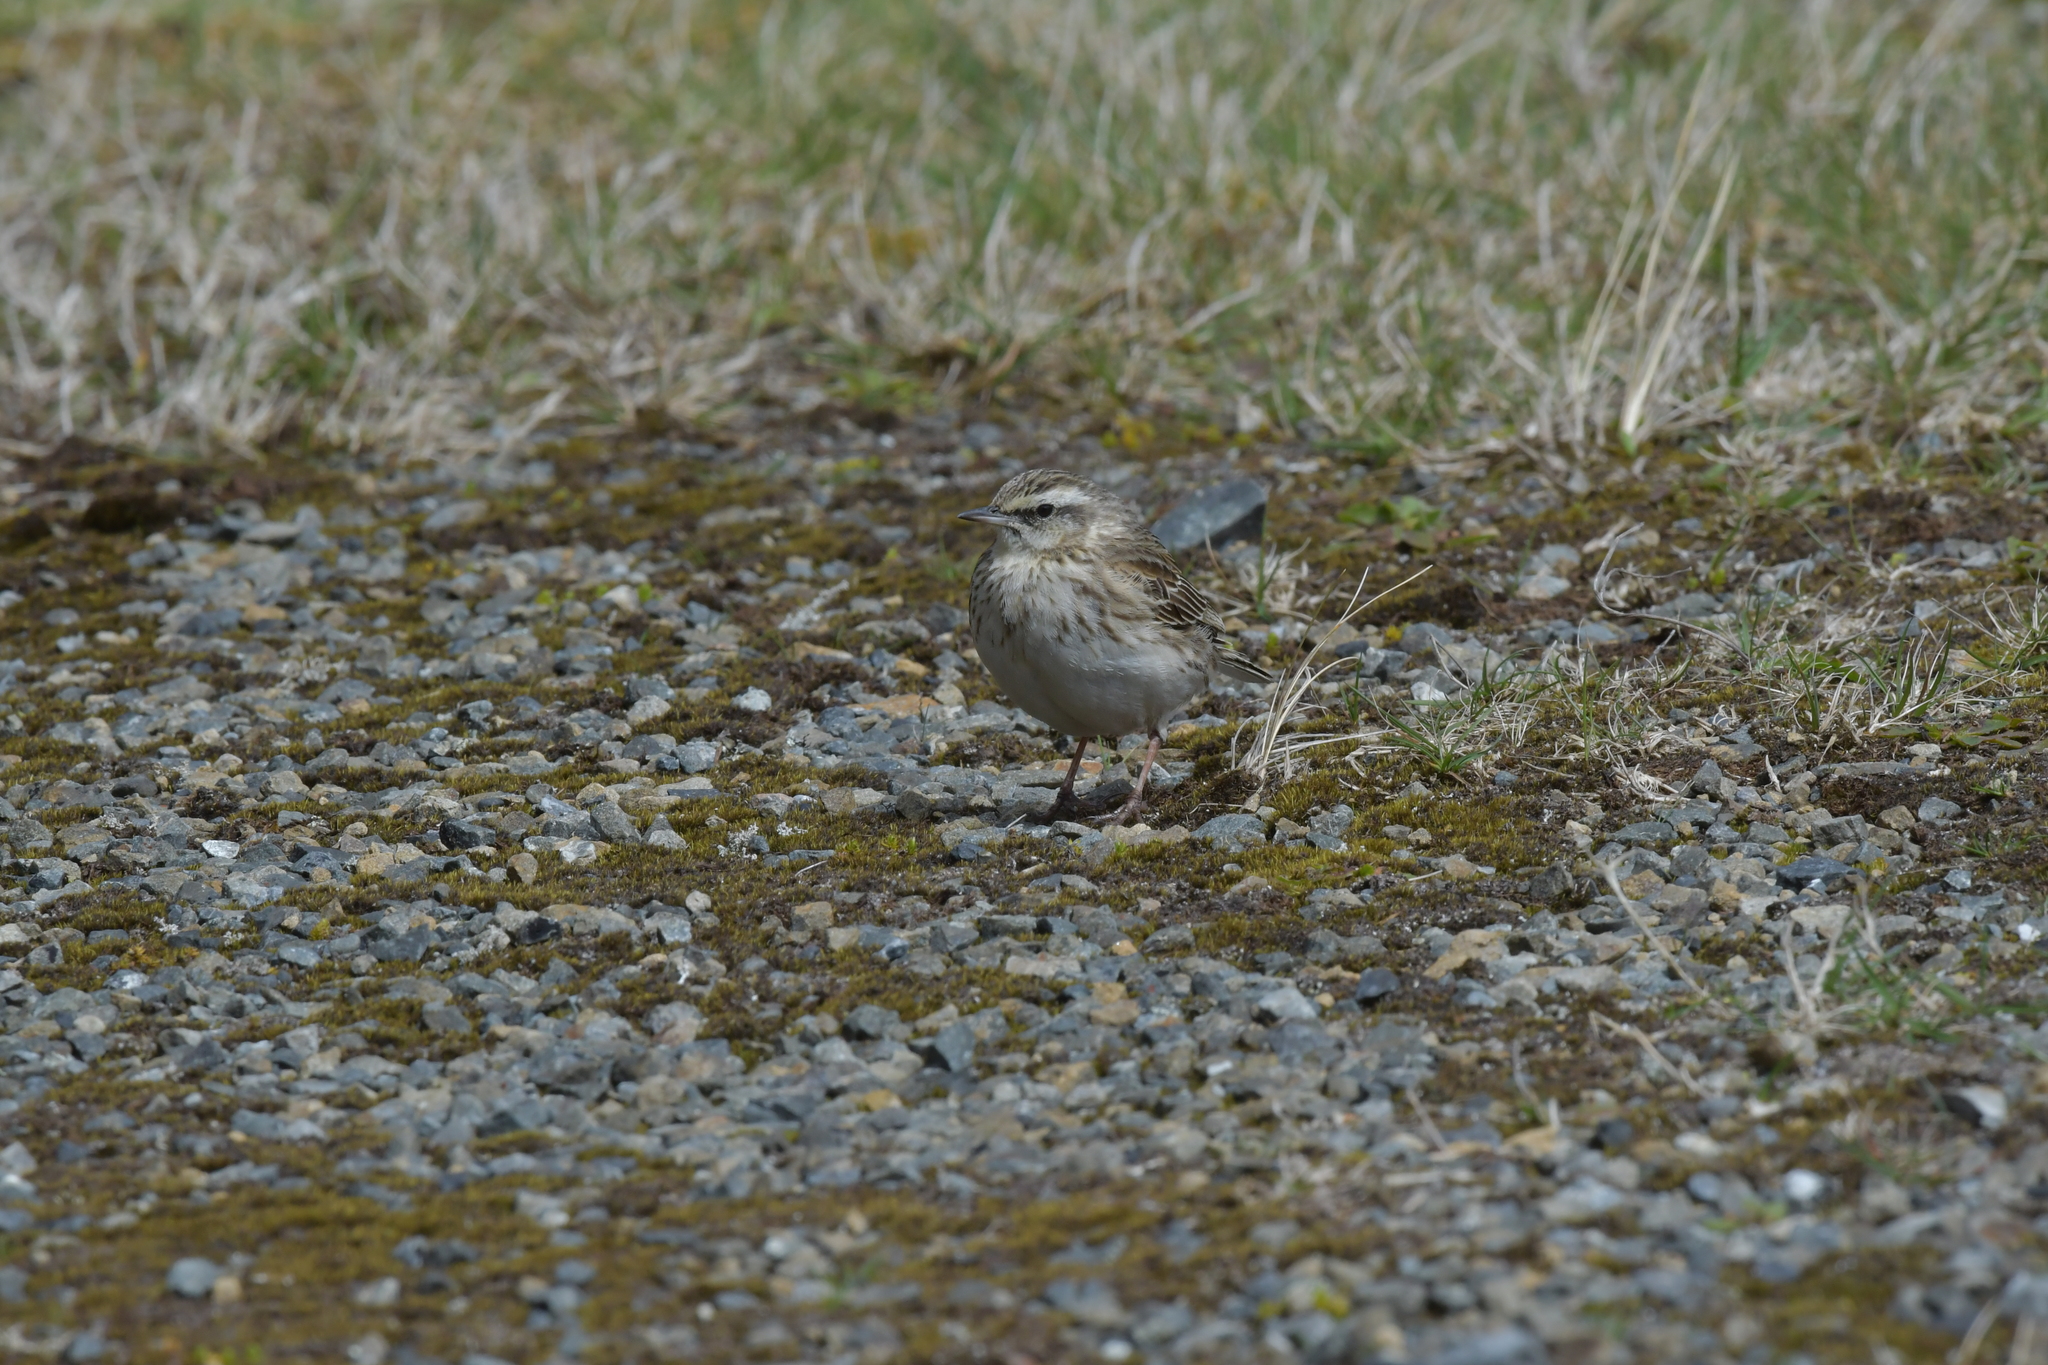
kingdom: Animalia
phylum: Chordata
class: Aves
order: Passeriformes
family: Motacillidae
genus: Anthus
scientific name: Anthus novaeseelandiae
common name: New zealand pipit
